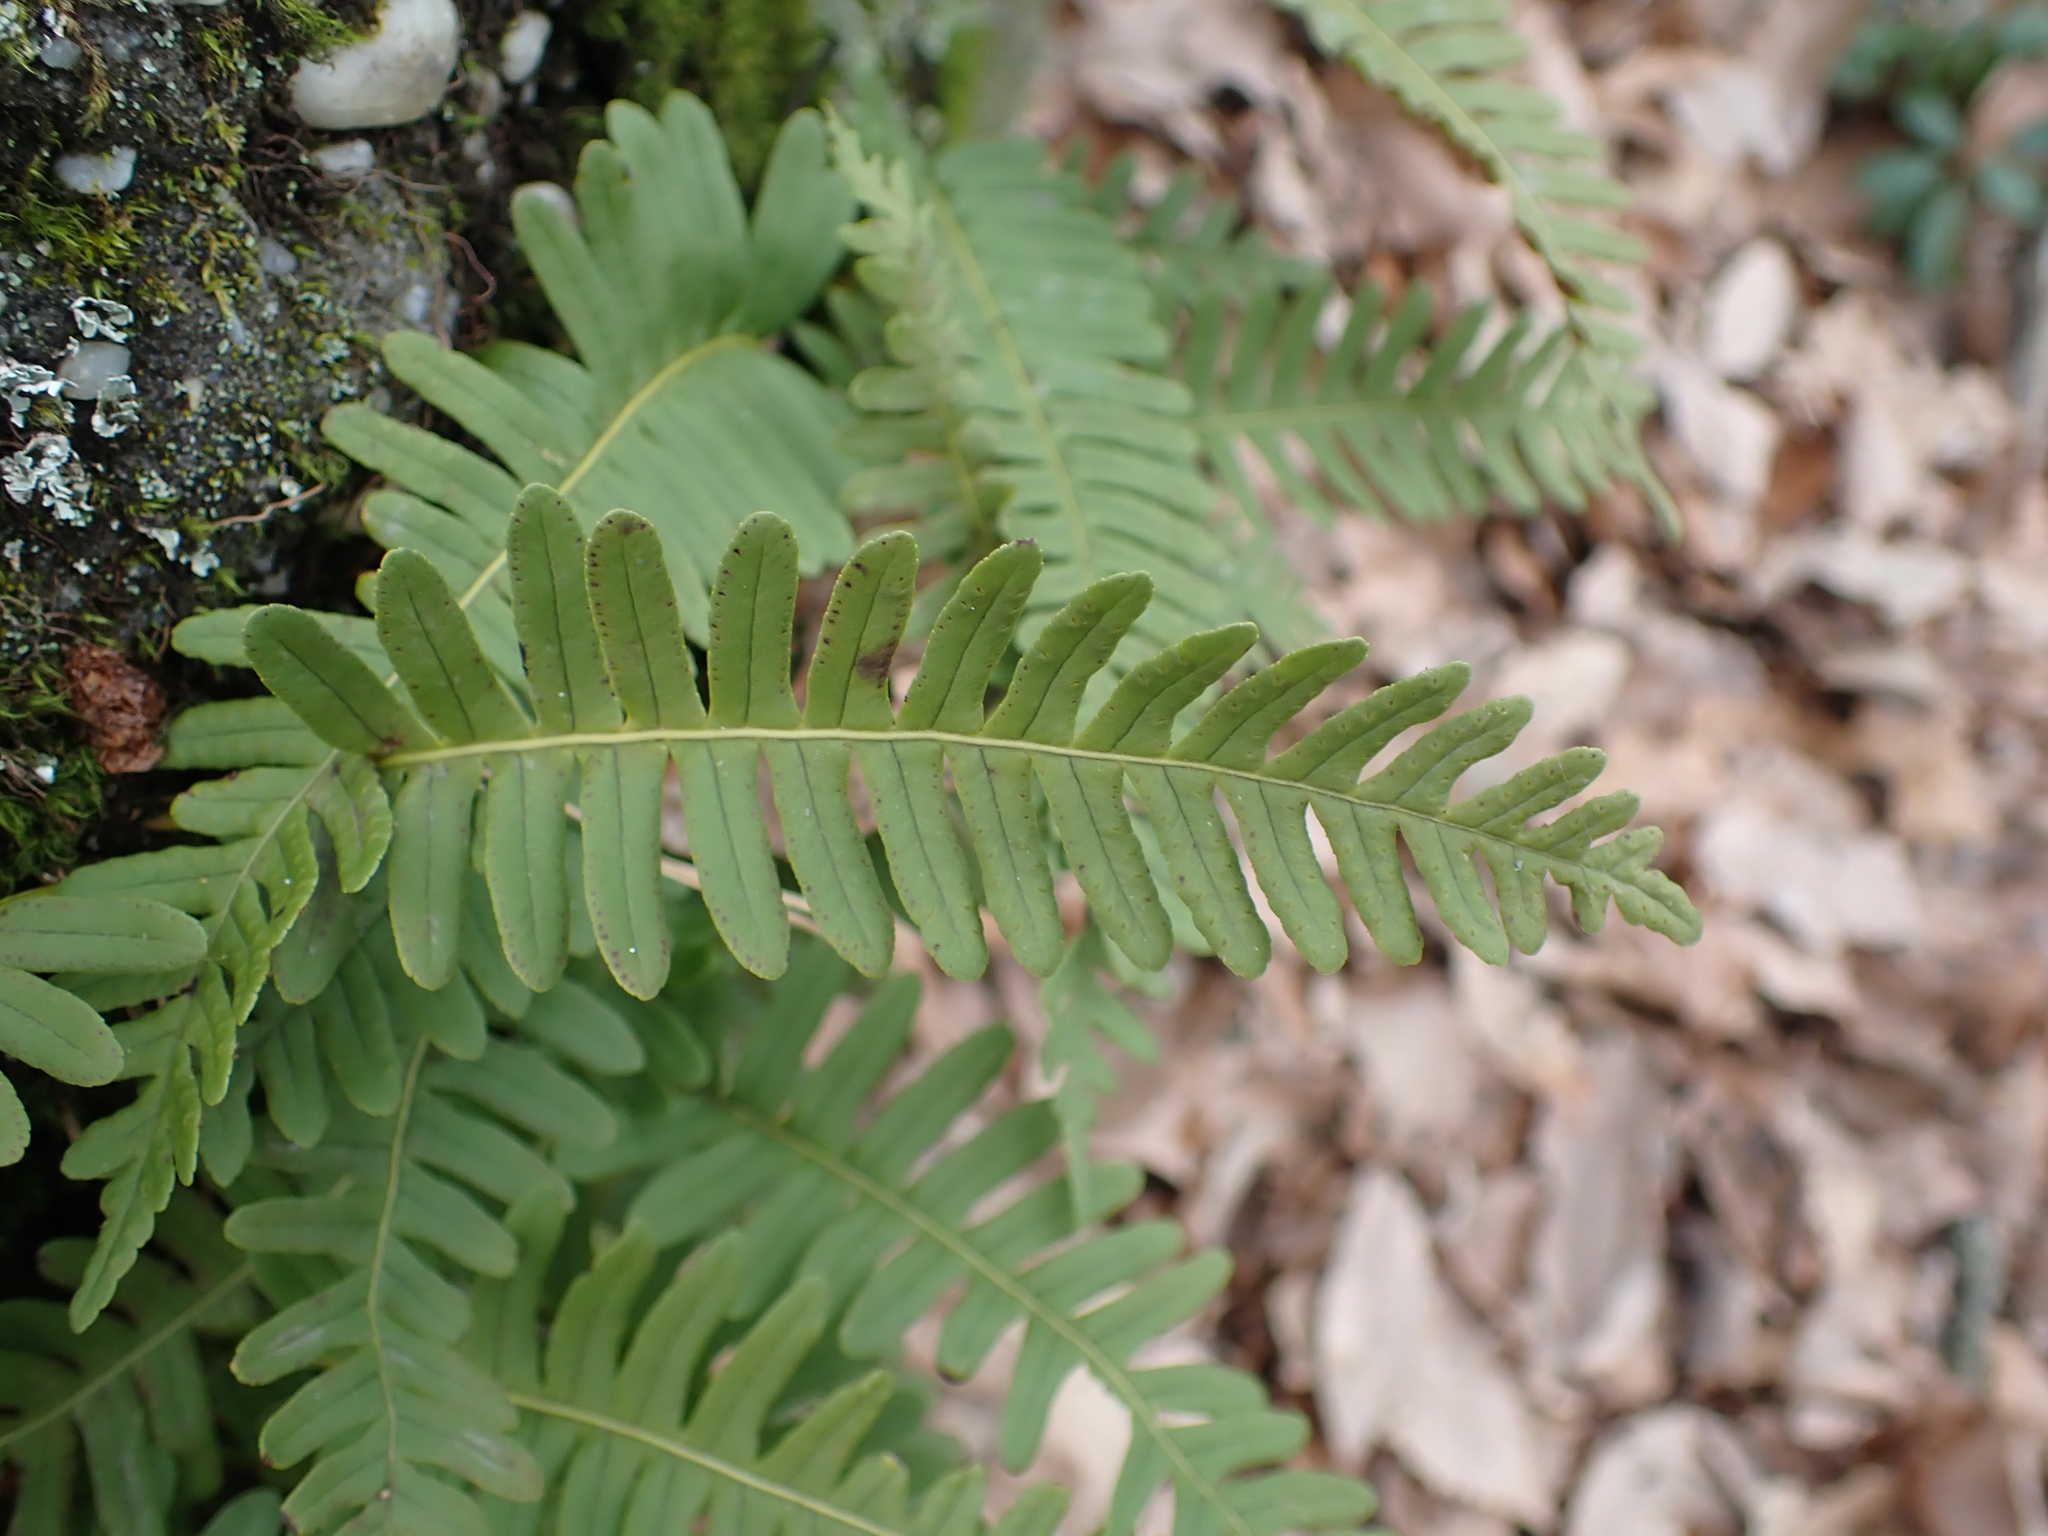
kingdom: Plantae
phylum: Tracheophyta
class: Polypodiopsida
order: Polypodiales
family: Polypodiaceae
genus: Polypodium
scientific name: Polypodium virginianum
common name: American wall fern
